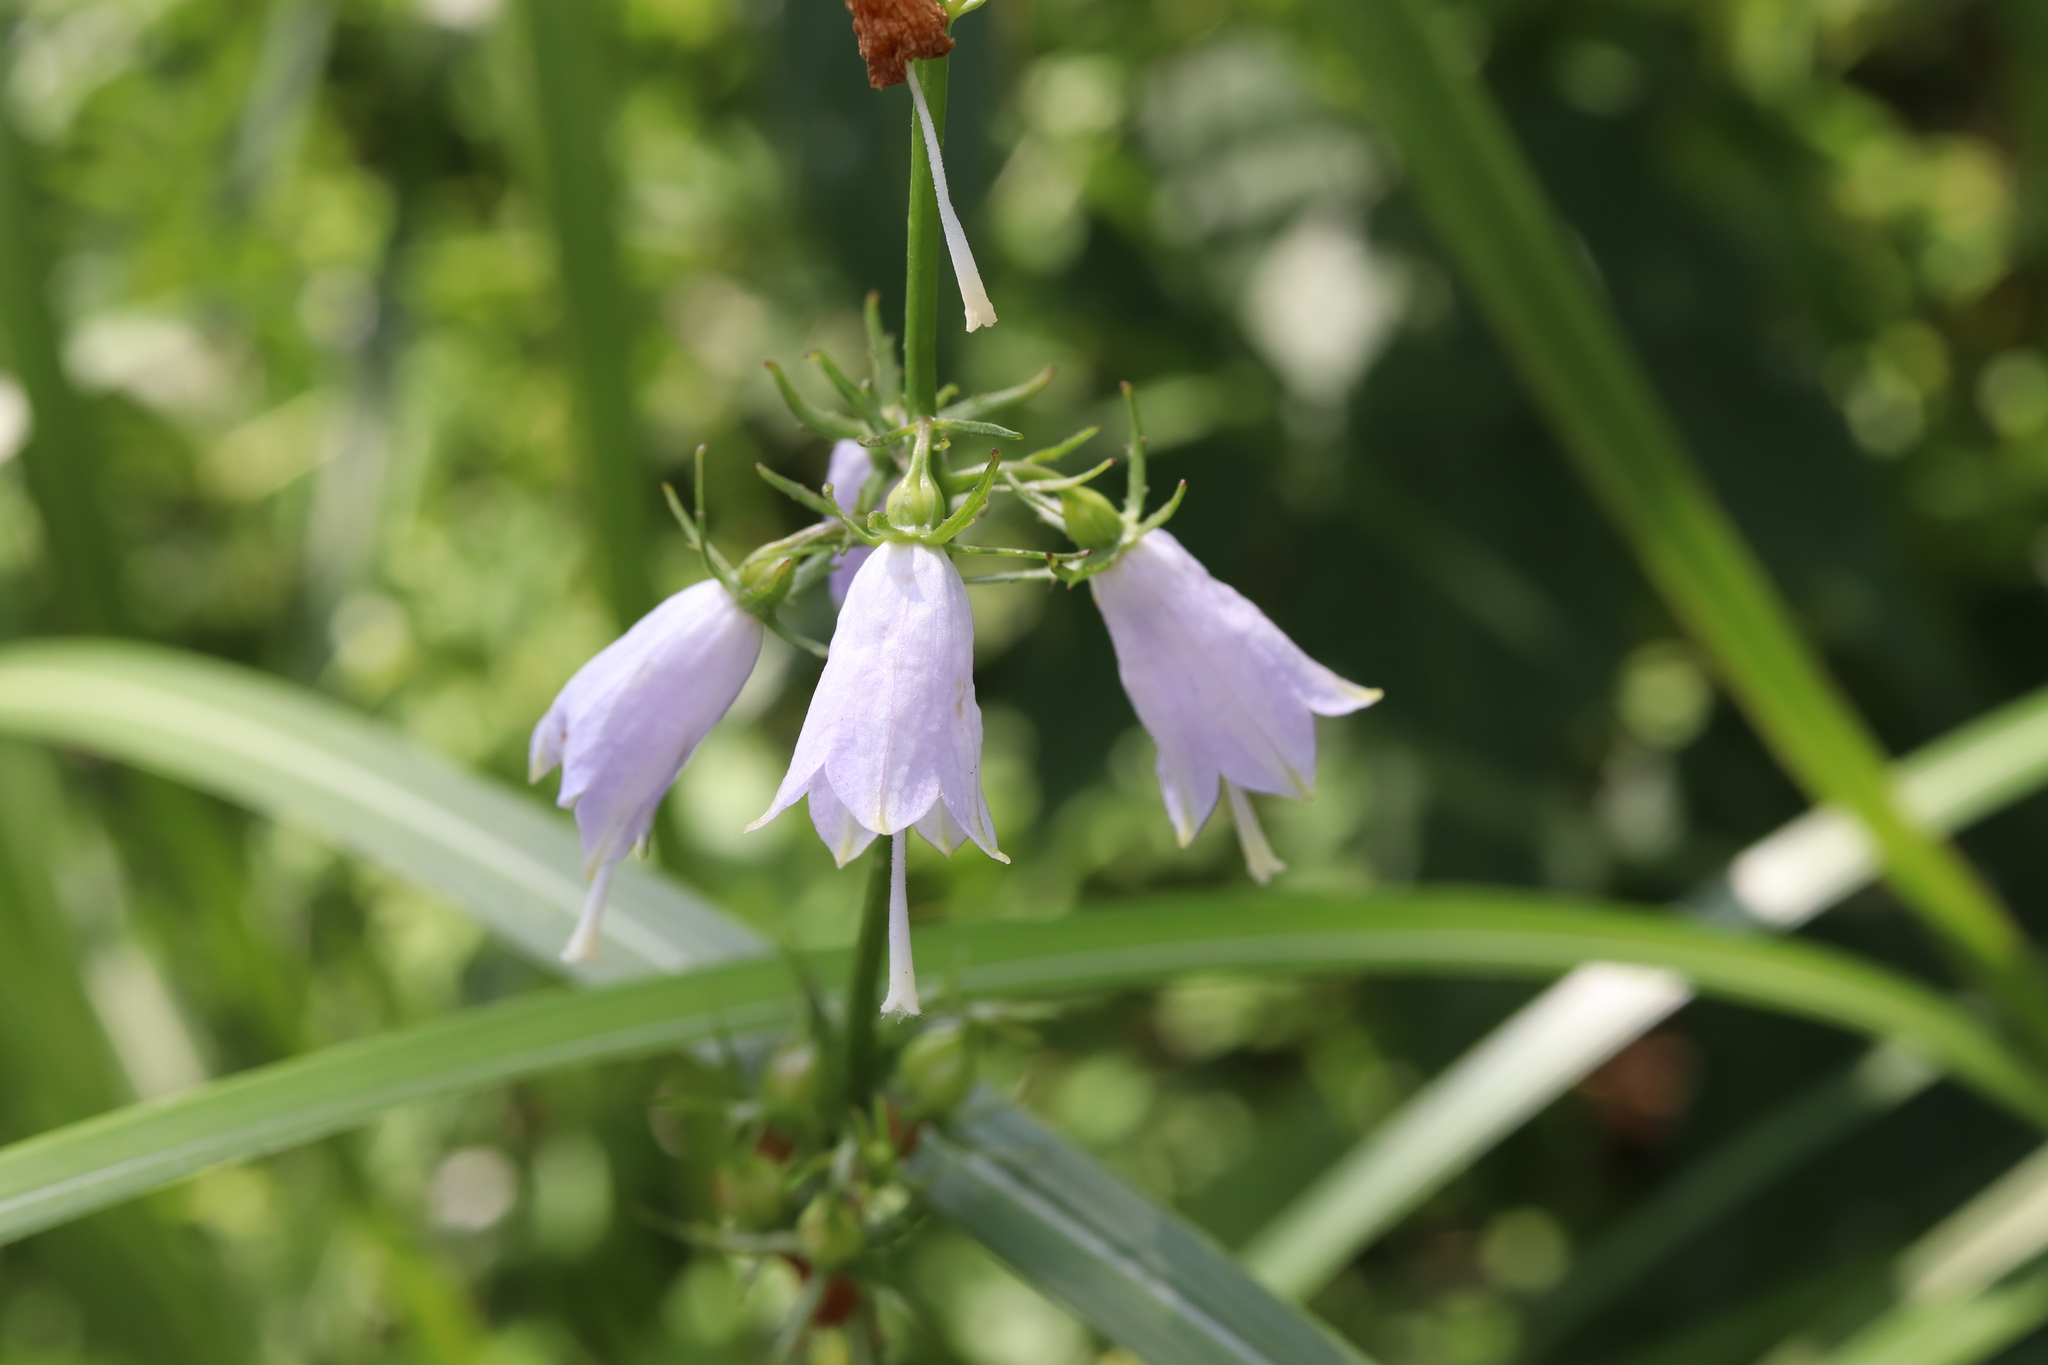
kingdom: Plantae
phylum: Tracheophyta
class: Magnoliopsida
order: Asterales
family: Campanulaceae
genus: Adenophora
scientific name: Adenophora triphylla
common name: Giant-bellflower
